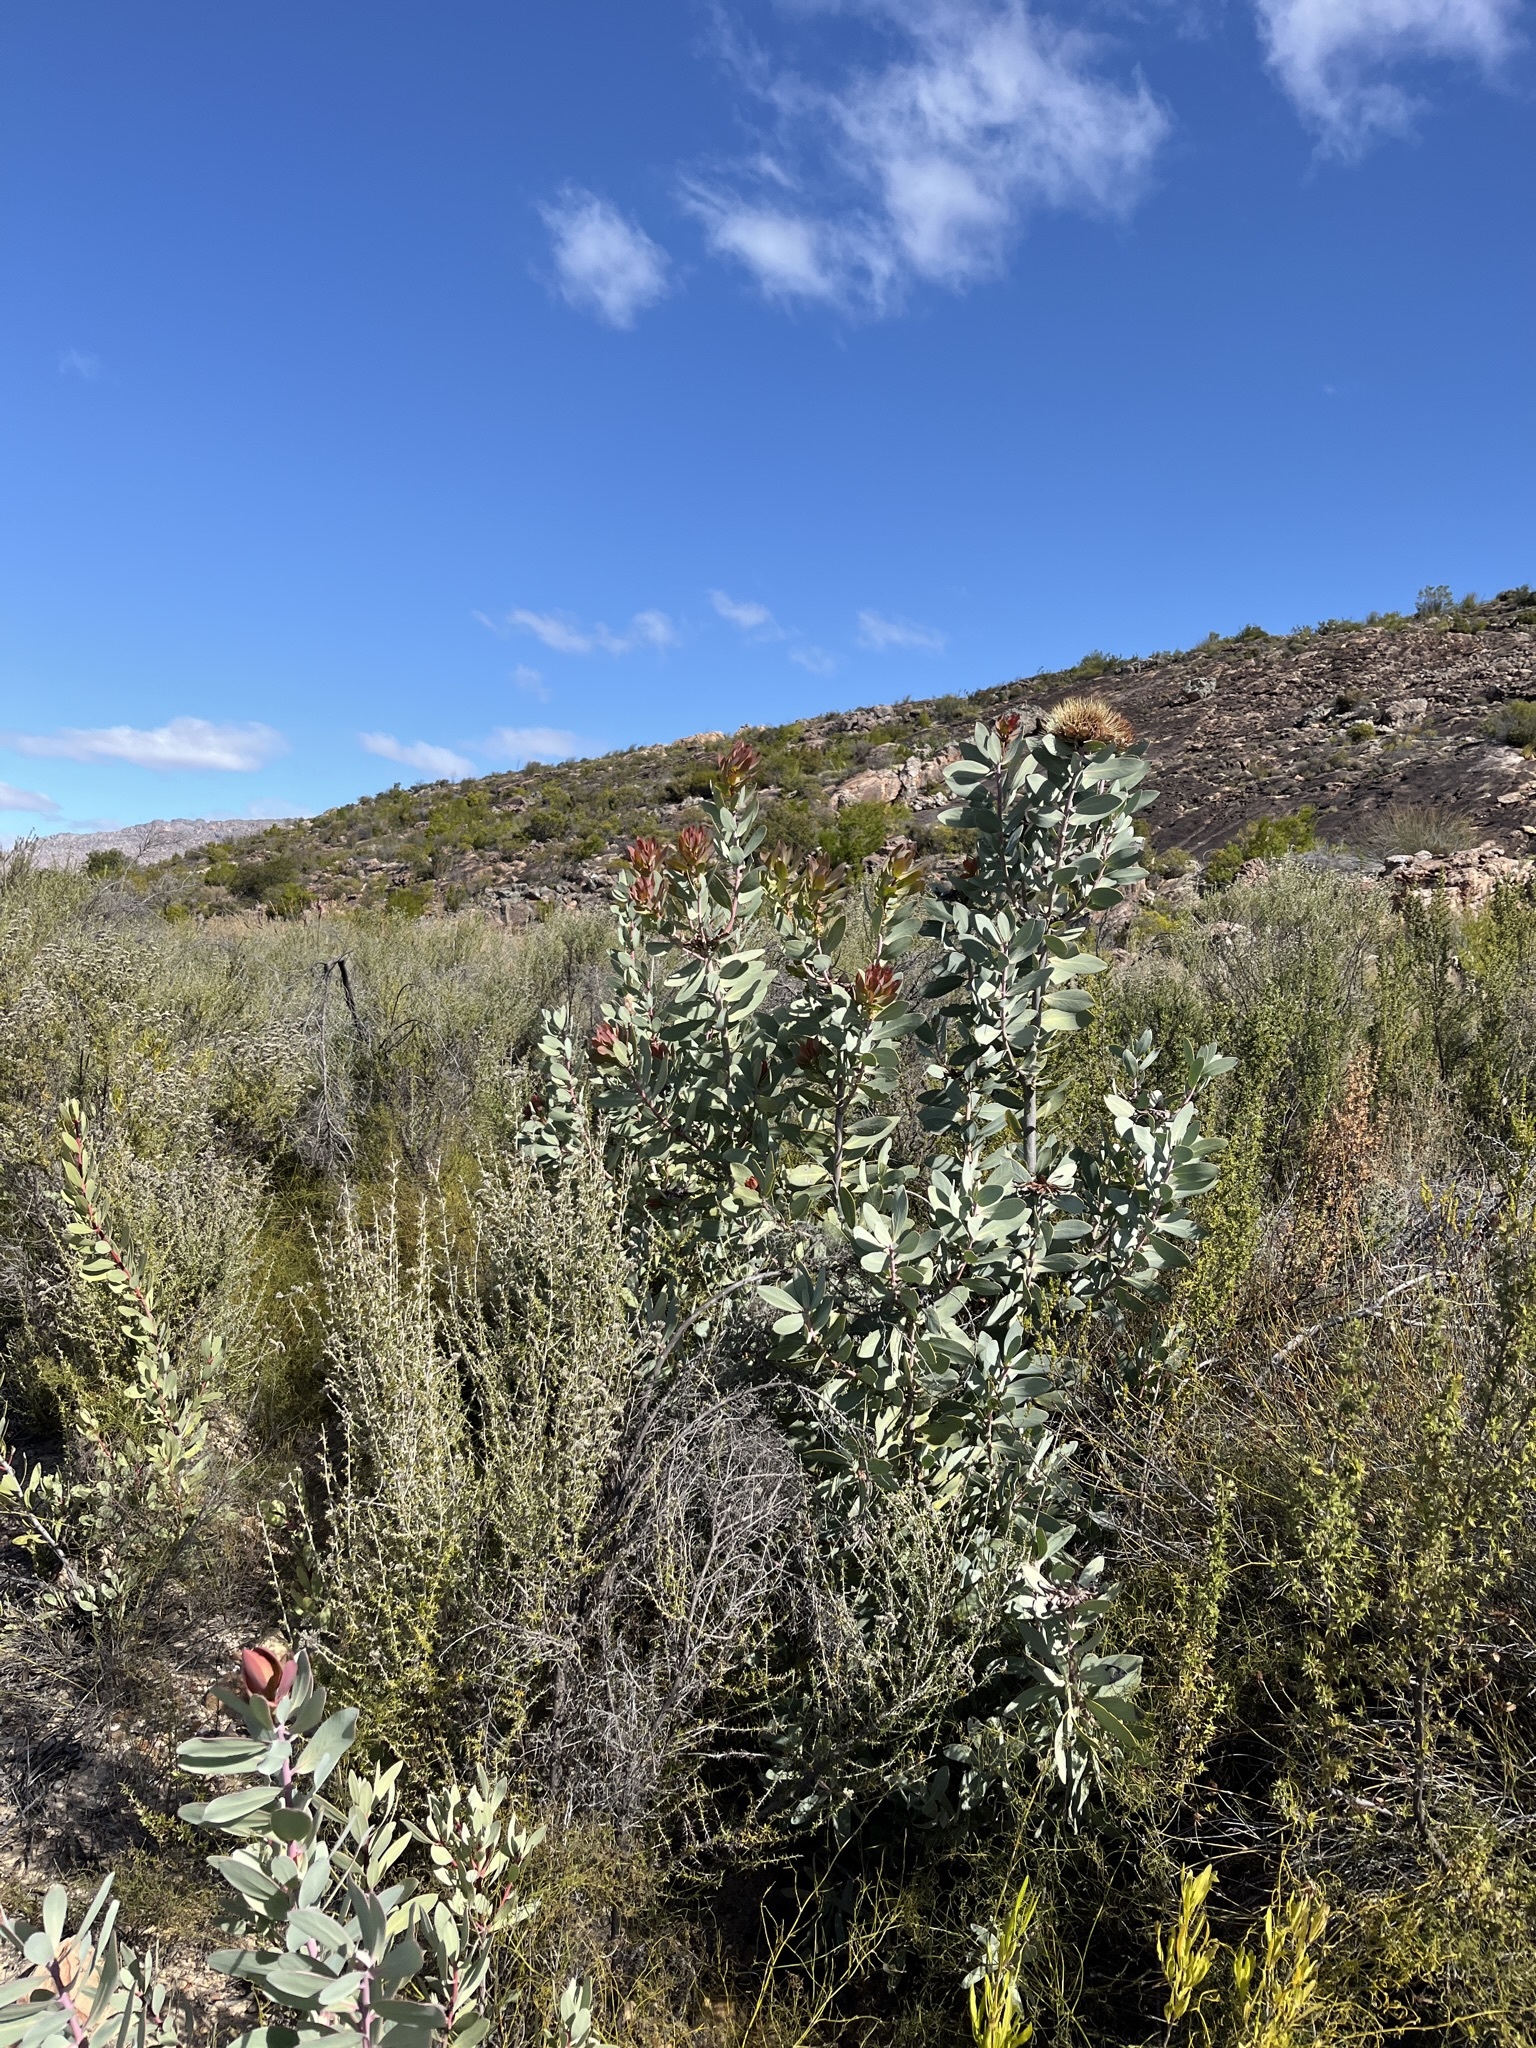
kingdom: Plantae
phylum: Tracheophyta
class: Magnoliopsida
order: Proteales
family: Proteaceae
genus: Protea
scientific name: Protea nitida
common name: Tree protea
